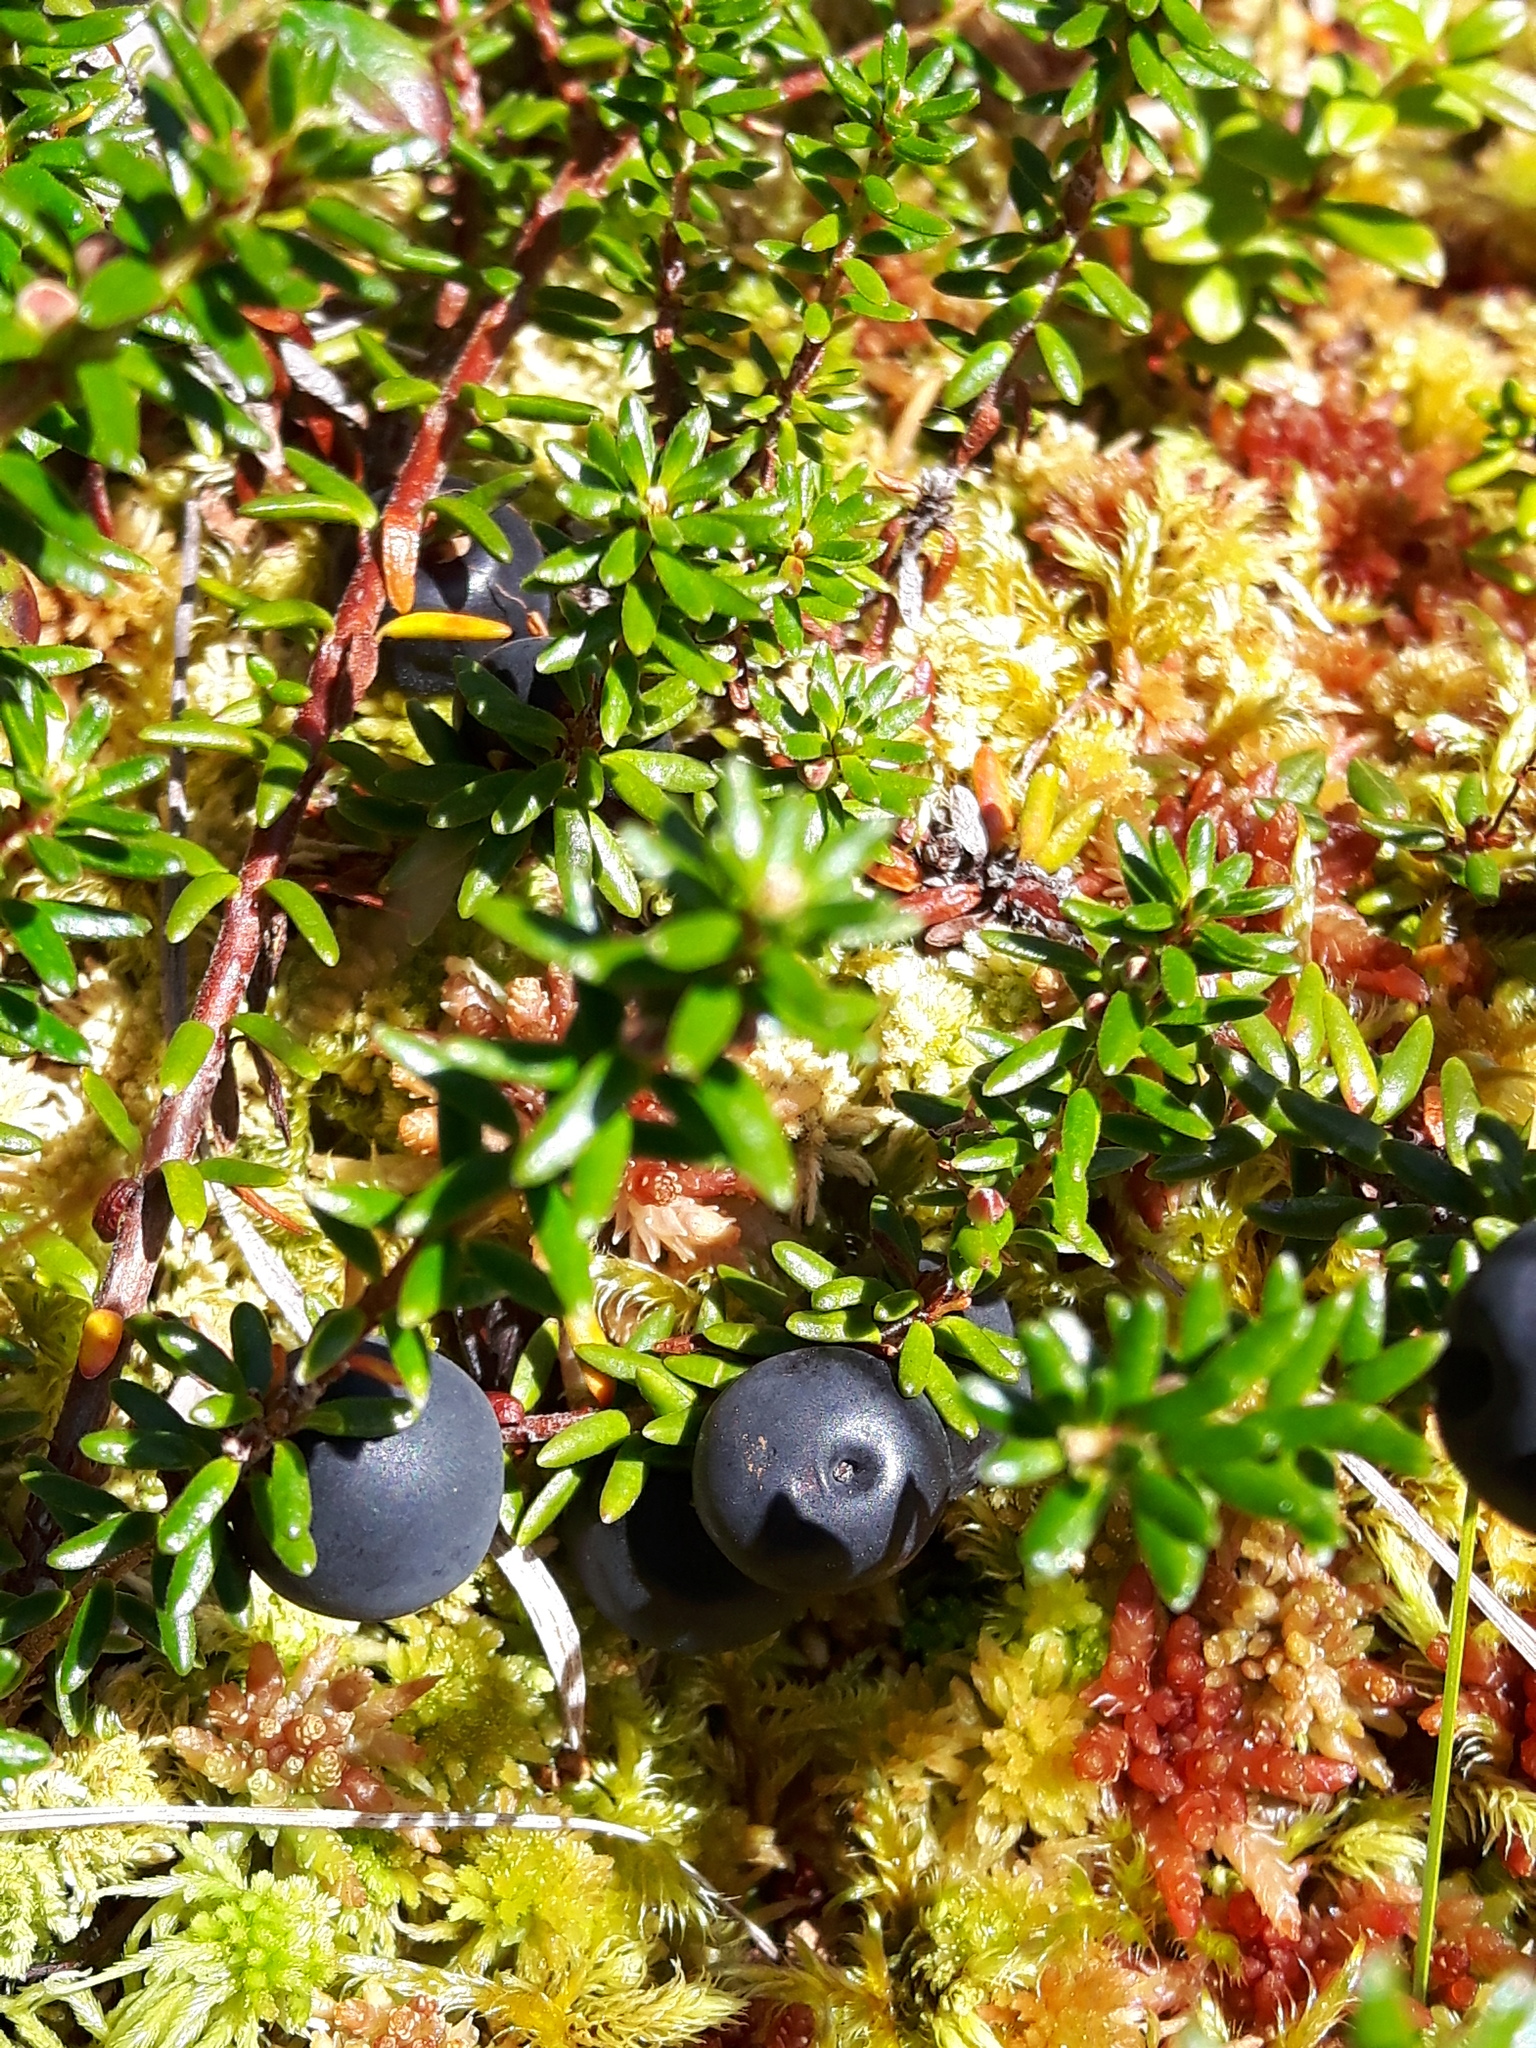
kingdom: Plantae
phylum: Tracheophyta
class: Magnoliopsida
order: Ericales
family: Ericaceae
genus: Empetrum
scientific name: Empetrum nigrum
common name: Black crowberry
